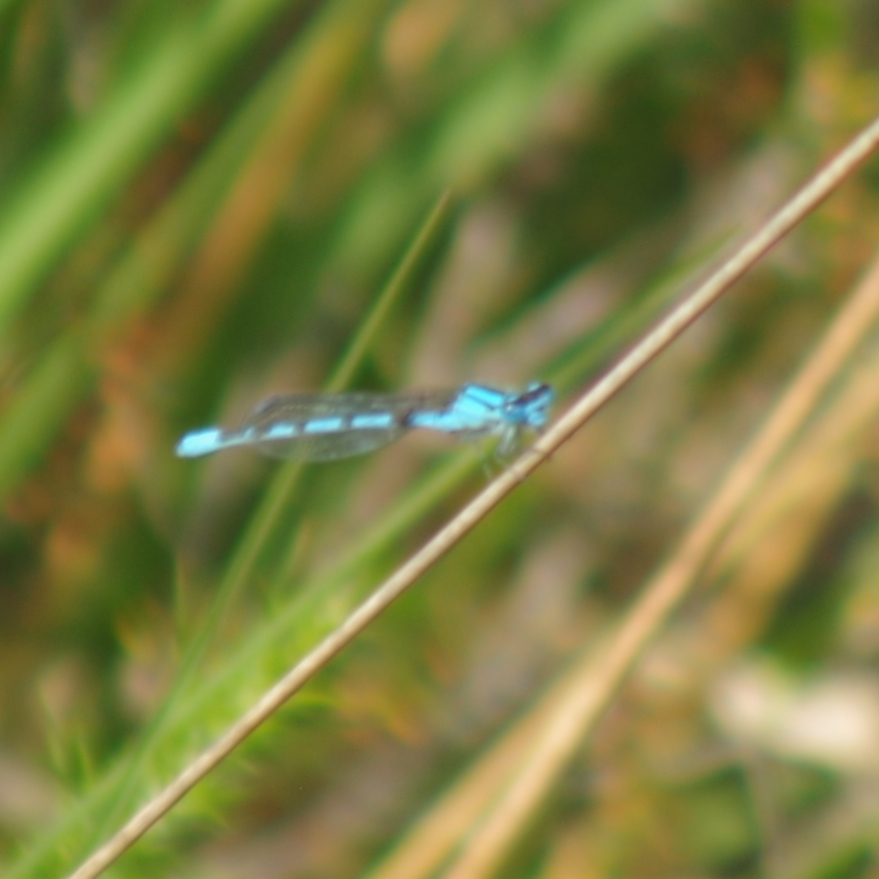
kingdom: Animalia
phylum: Arthropoda
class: Insecta
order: Odonata
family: Coenagrionidae
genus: Enallagma
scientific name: Enallagma cyathigerum
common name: Common blue damselfly
